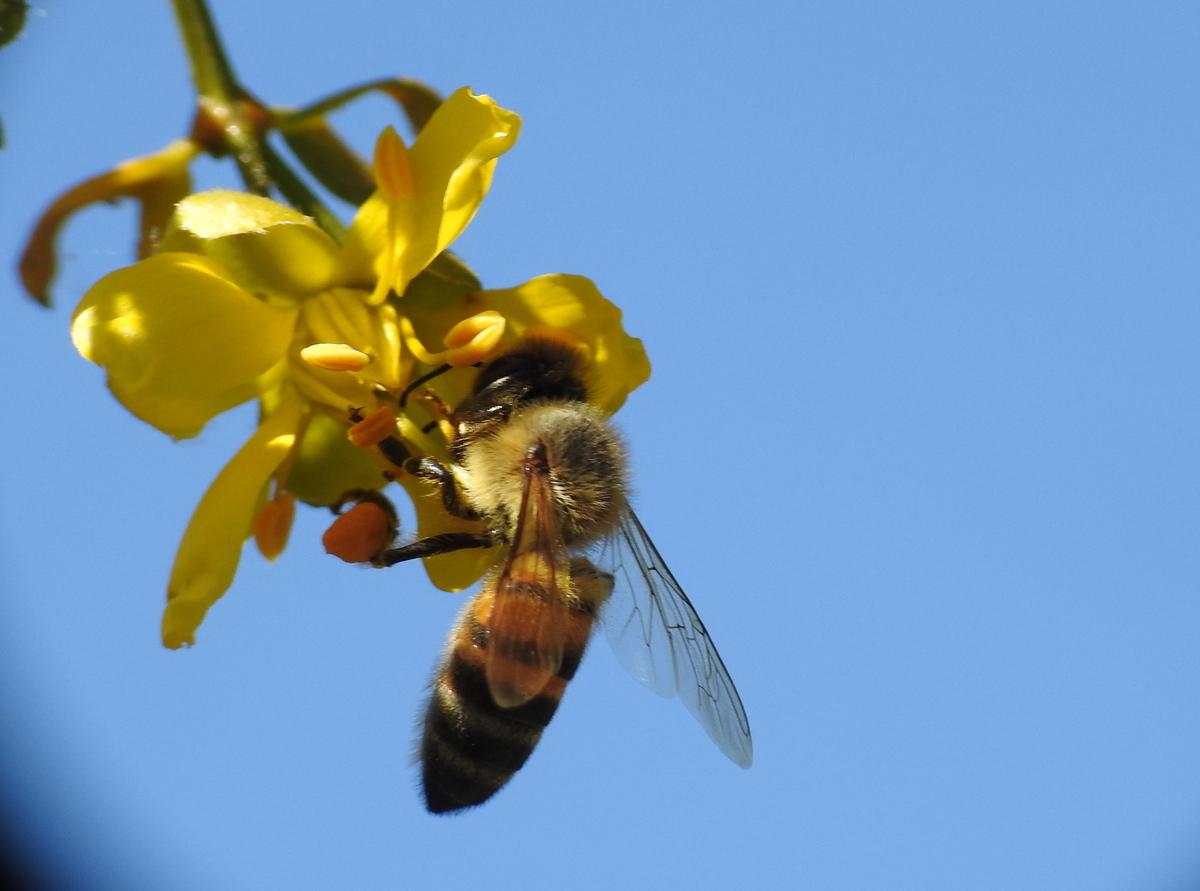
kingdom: Animalia
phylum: Arthropoda
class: Insecta
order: Hymenoptera
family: Apidae
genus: Apis
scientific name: Apis mellifera
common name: Honey bee
